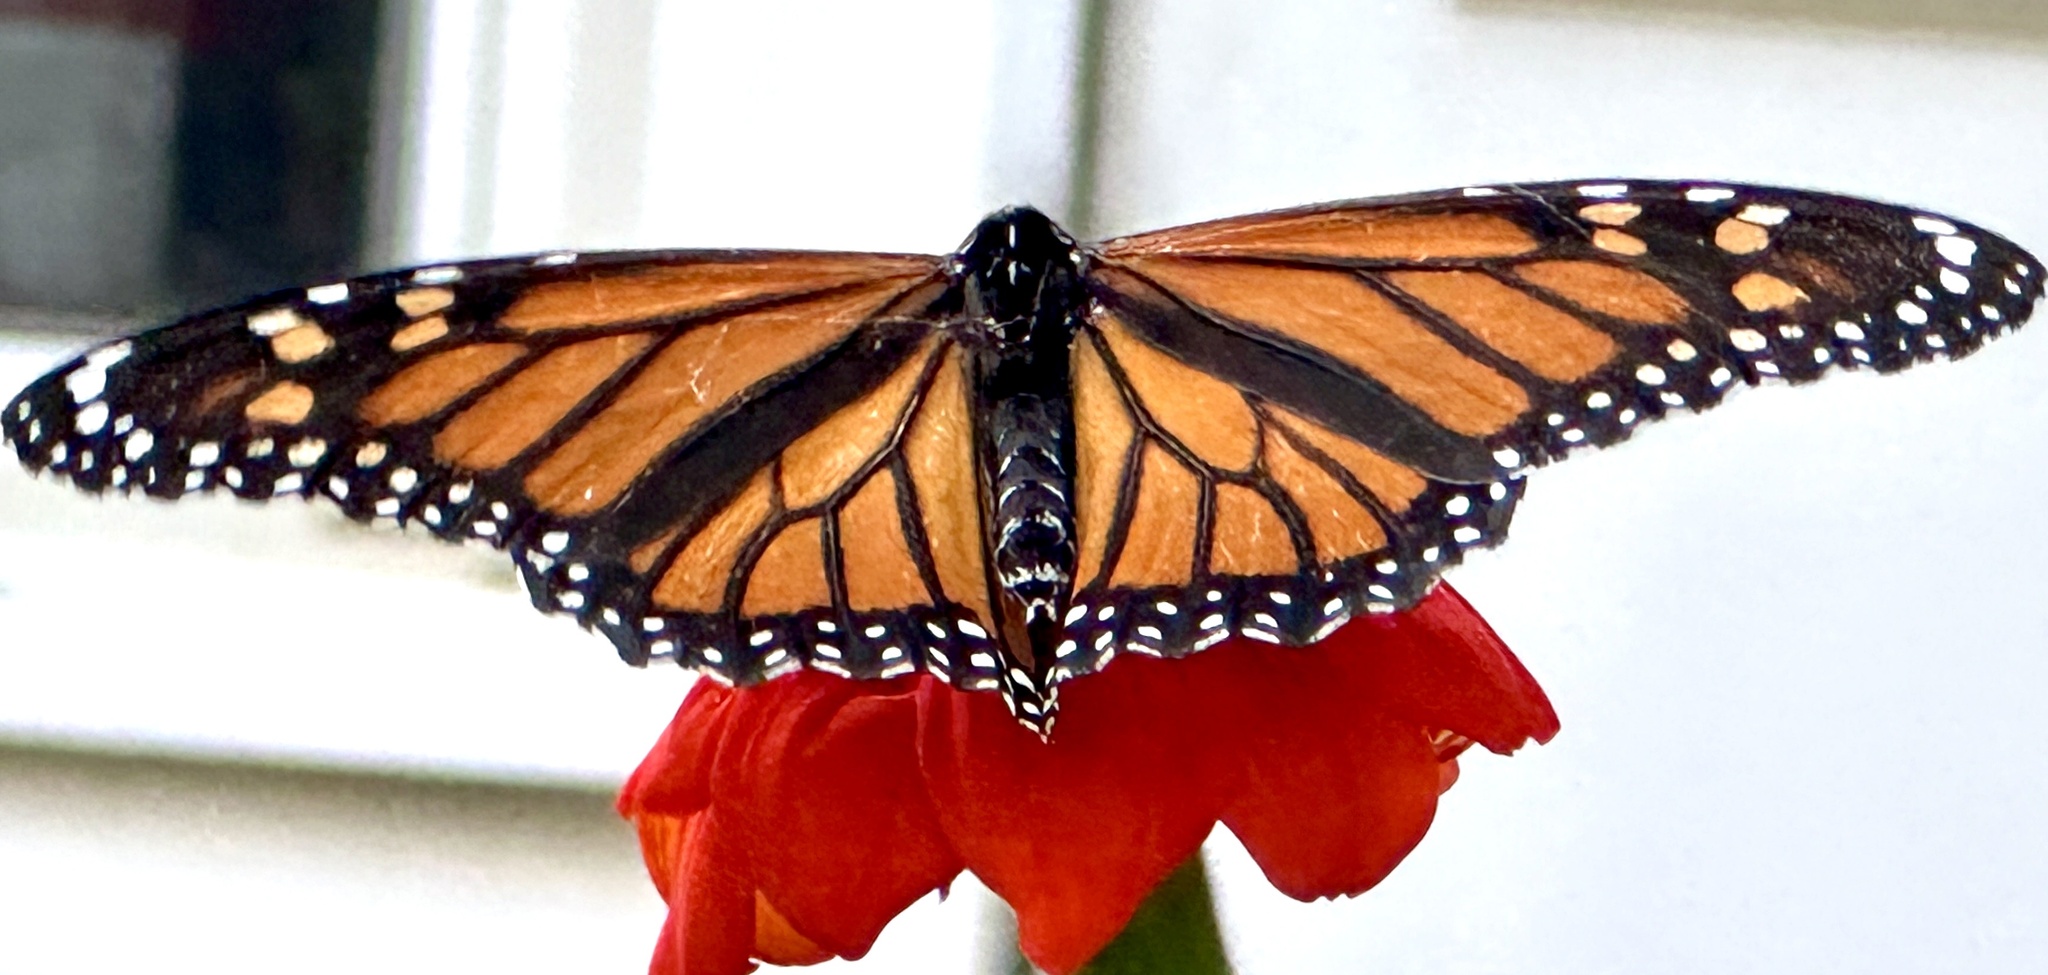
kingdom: Animalia
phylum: Arthropoda
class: Insecta
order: Lepidoptera
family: Nymphalidae
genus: Danaus
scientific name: Danaus plexippus
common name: Monarch
